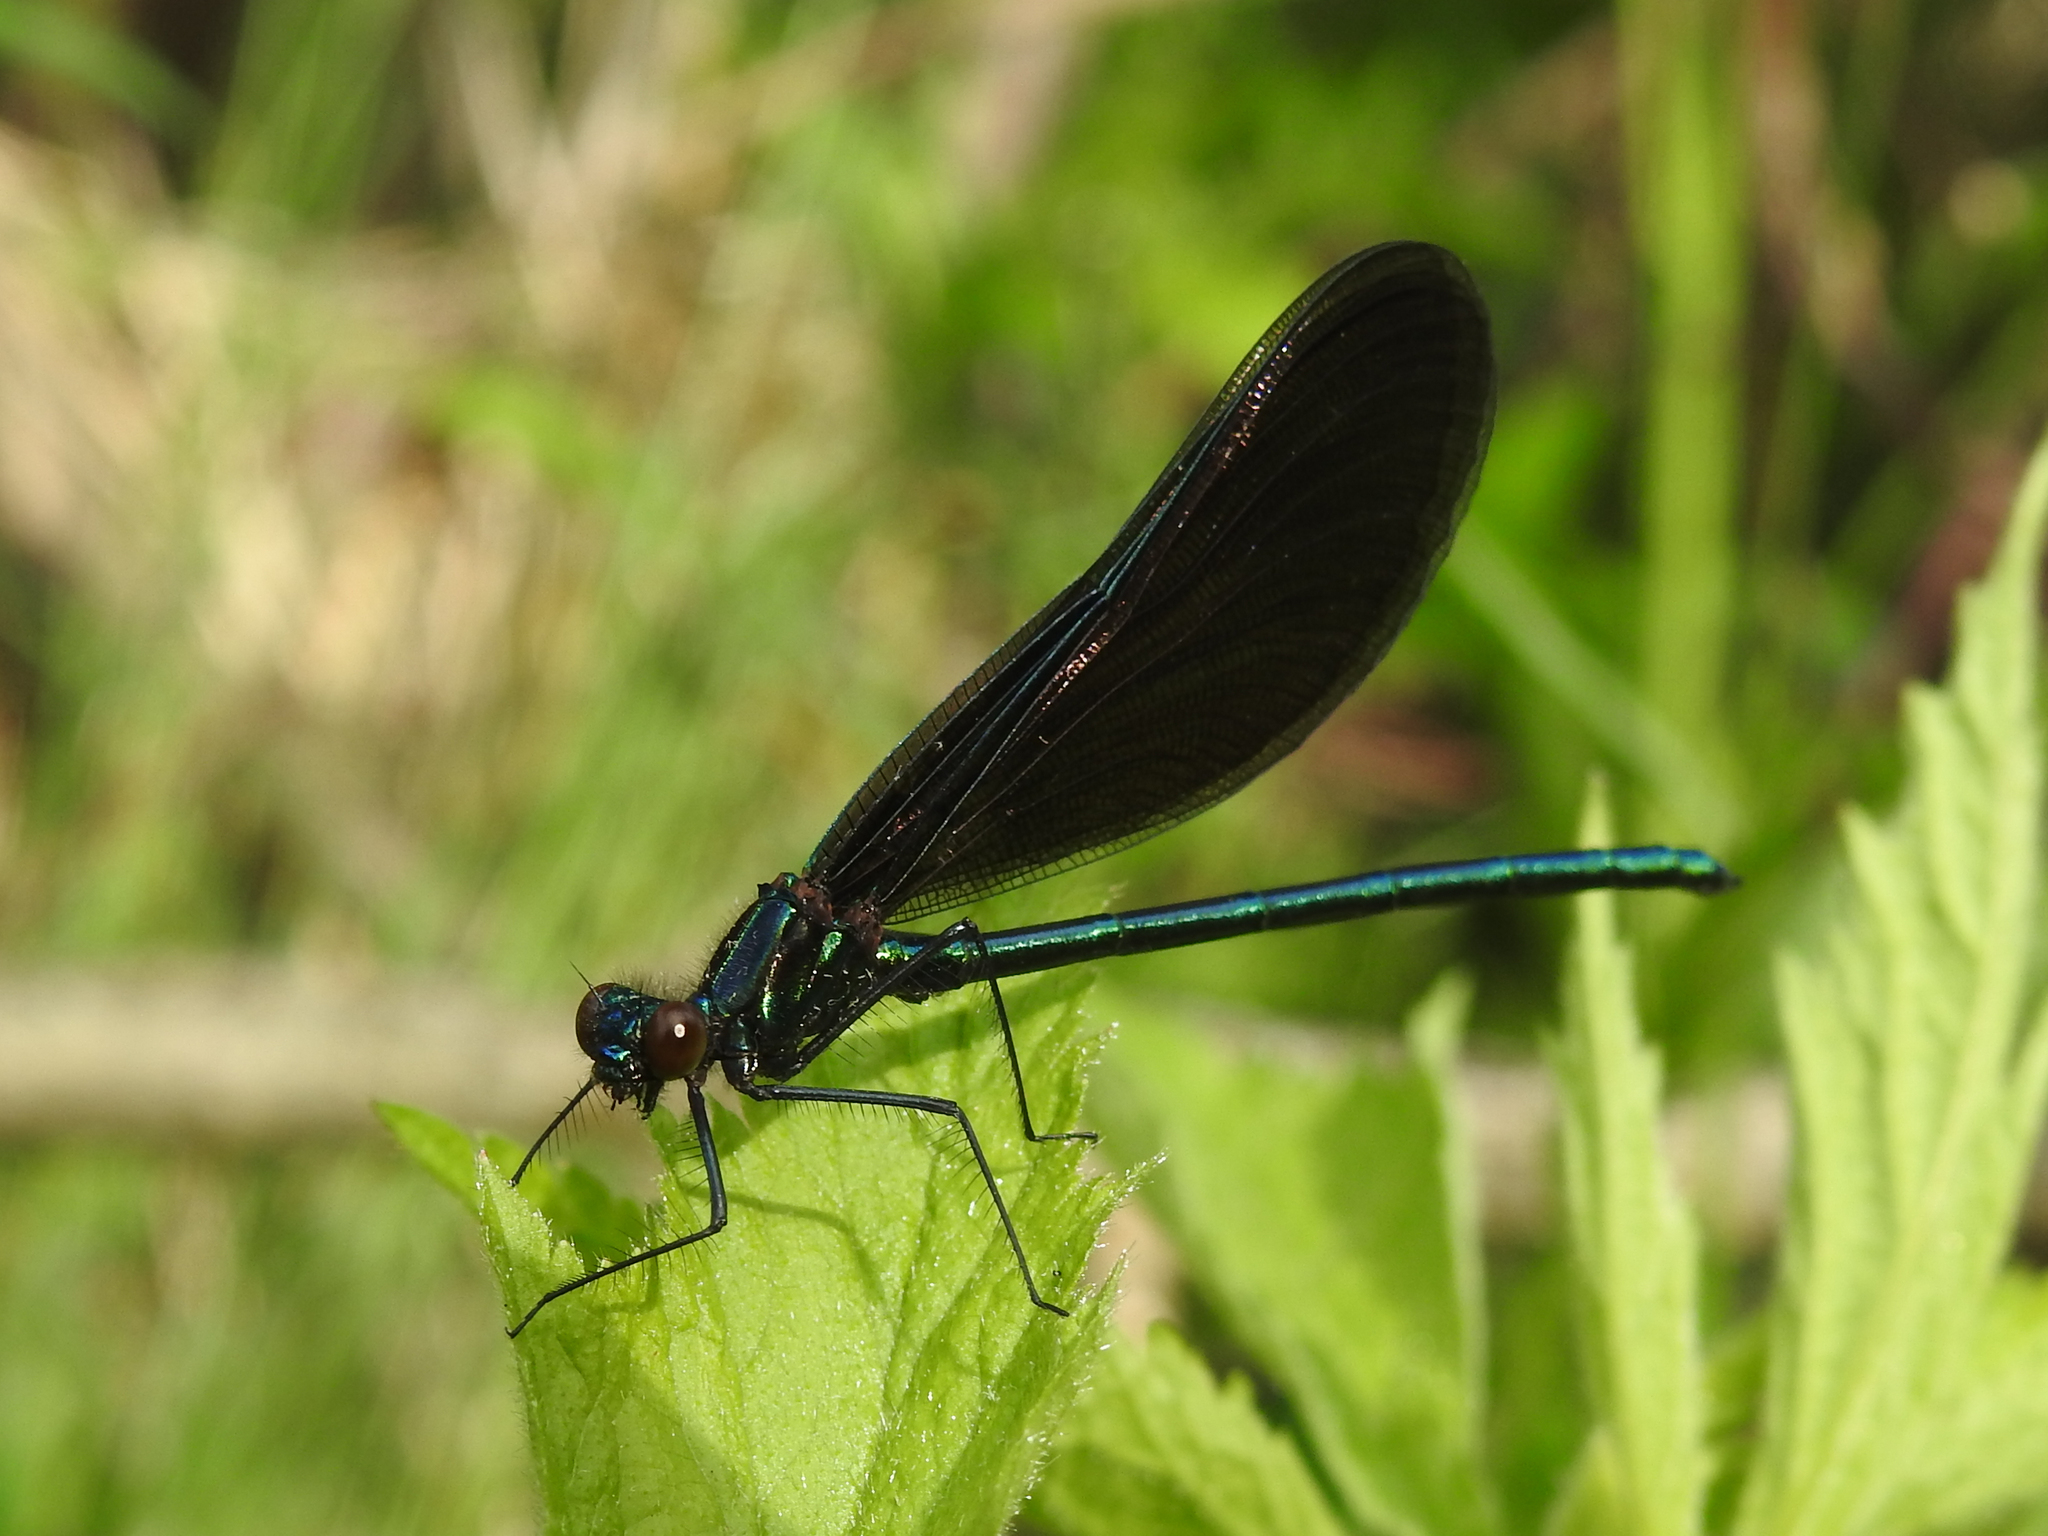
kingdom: Animalia
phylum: Arthropoda
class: Insecta
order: Odonata
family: Calopterygidae
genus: Calopteryx
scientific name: Calopteryx maculata
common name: Ebony jewelwing
